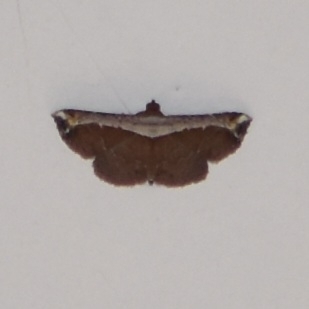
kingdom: Animalia
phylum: Arthropoda
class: Insecta
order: Lepidoptera
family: Erebidae
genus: Zurobata
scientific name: Zurobata vacillans
